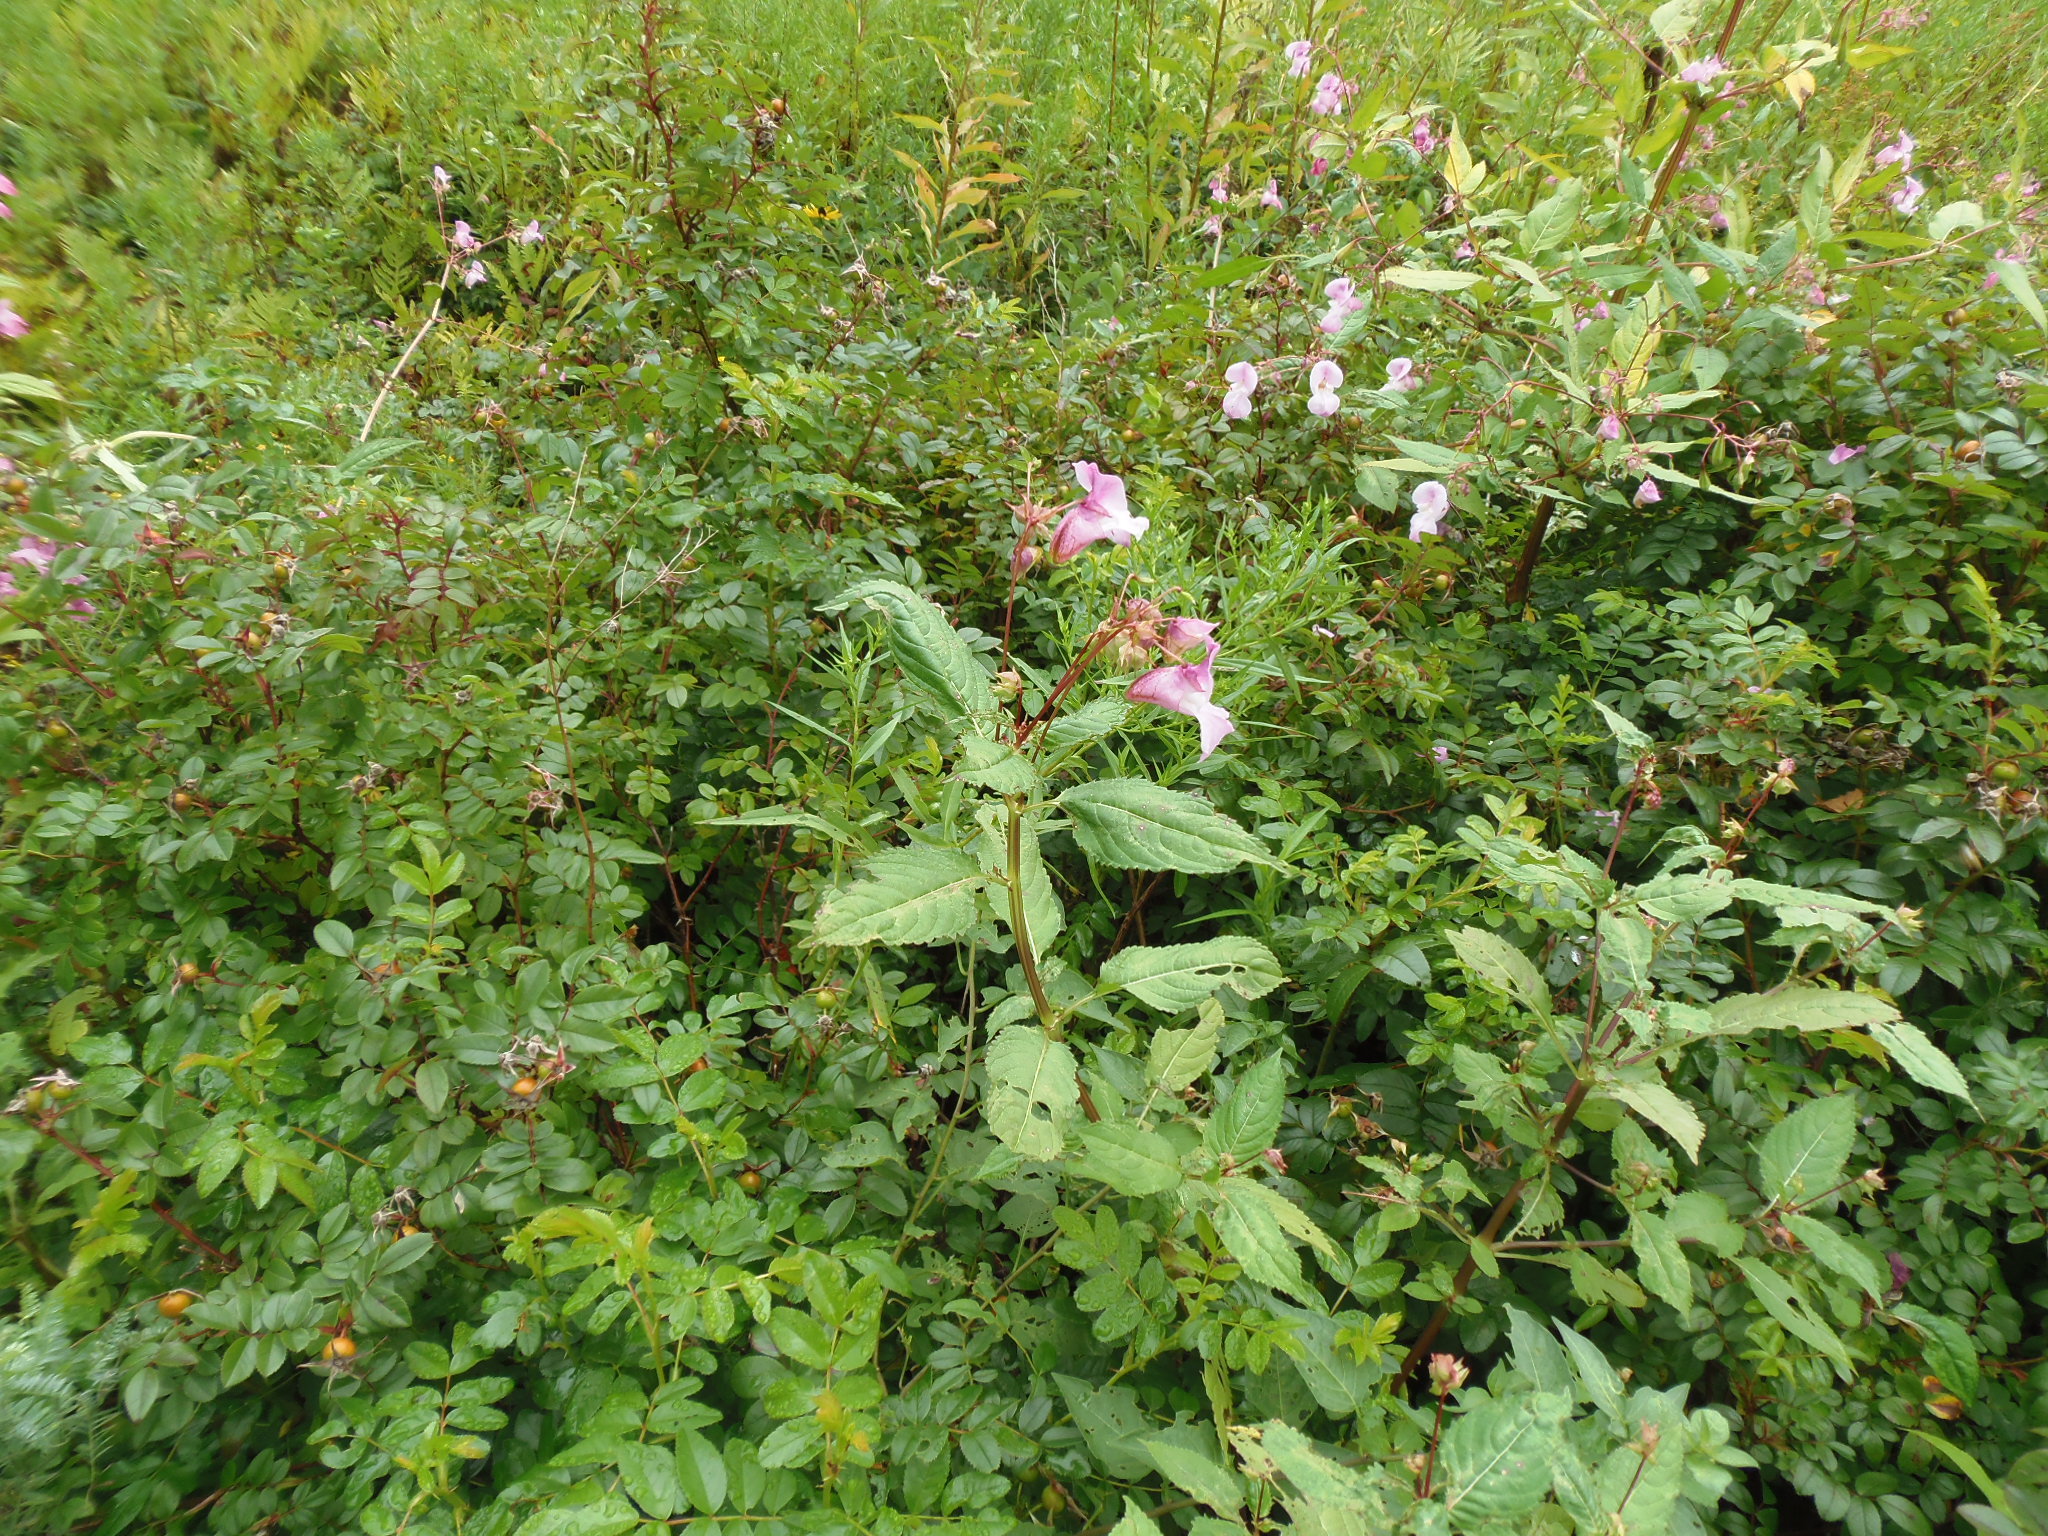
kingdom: Plantae
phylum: Tracheophyta
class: Magnoliopsida
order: Ericales
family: Balsaminaceae
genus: Impatiens
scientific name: Impatiens glandulifera
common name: Himalayan balsam
